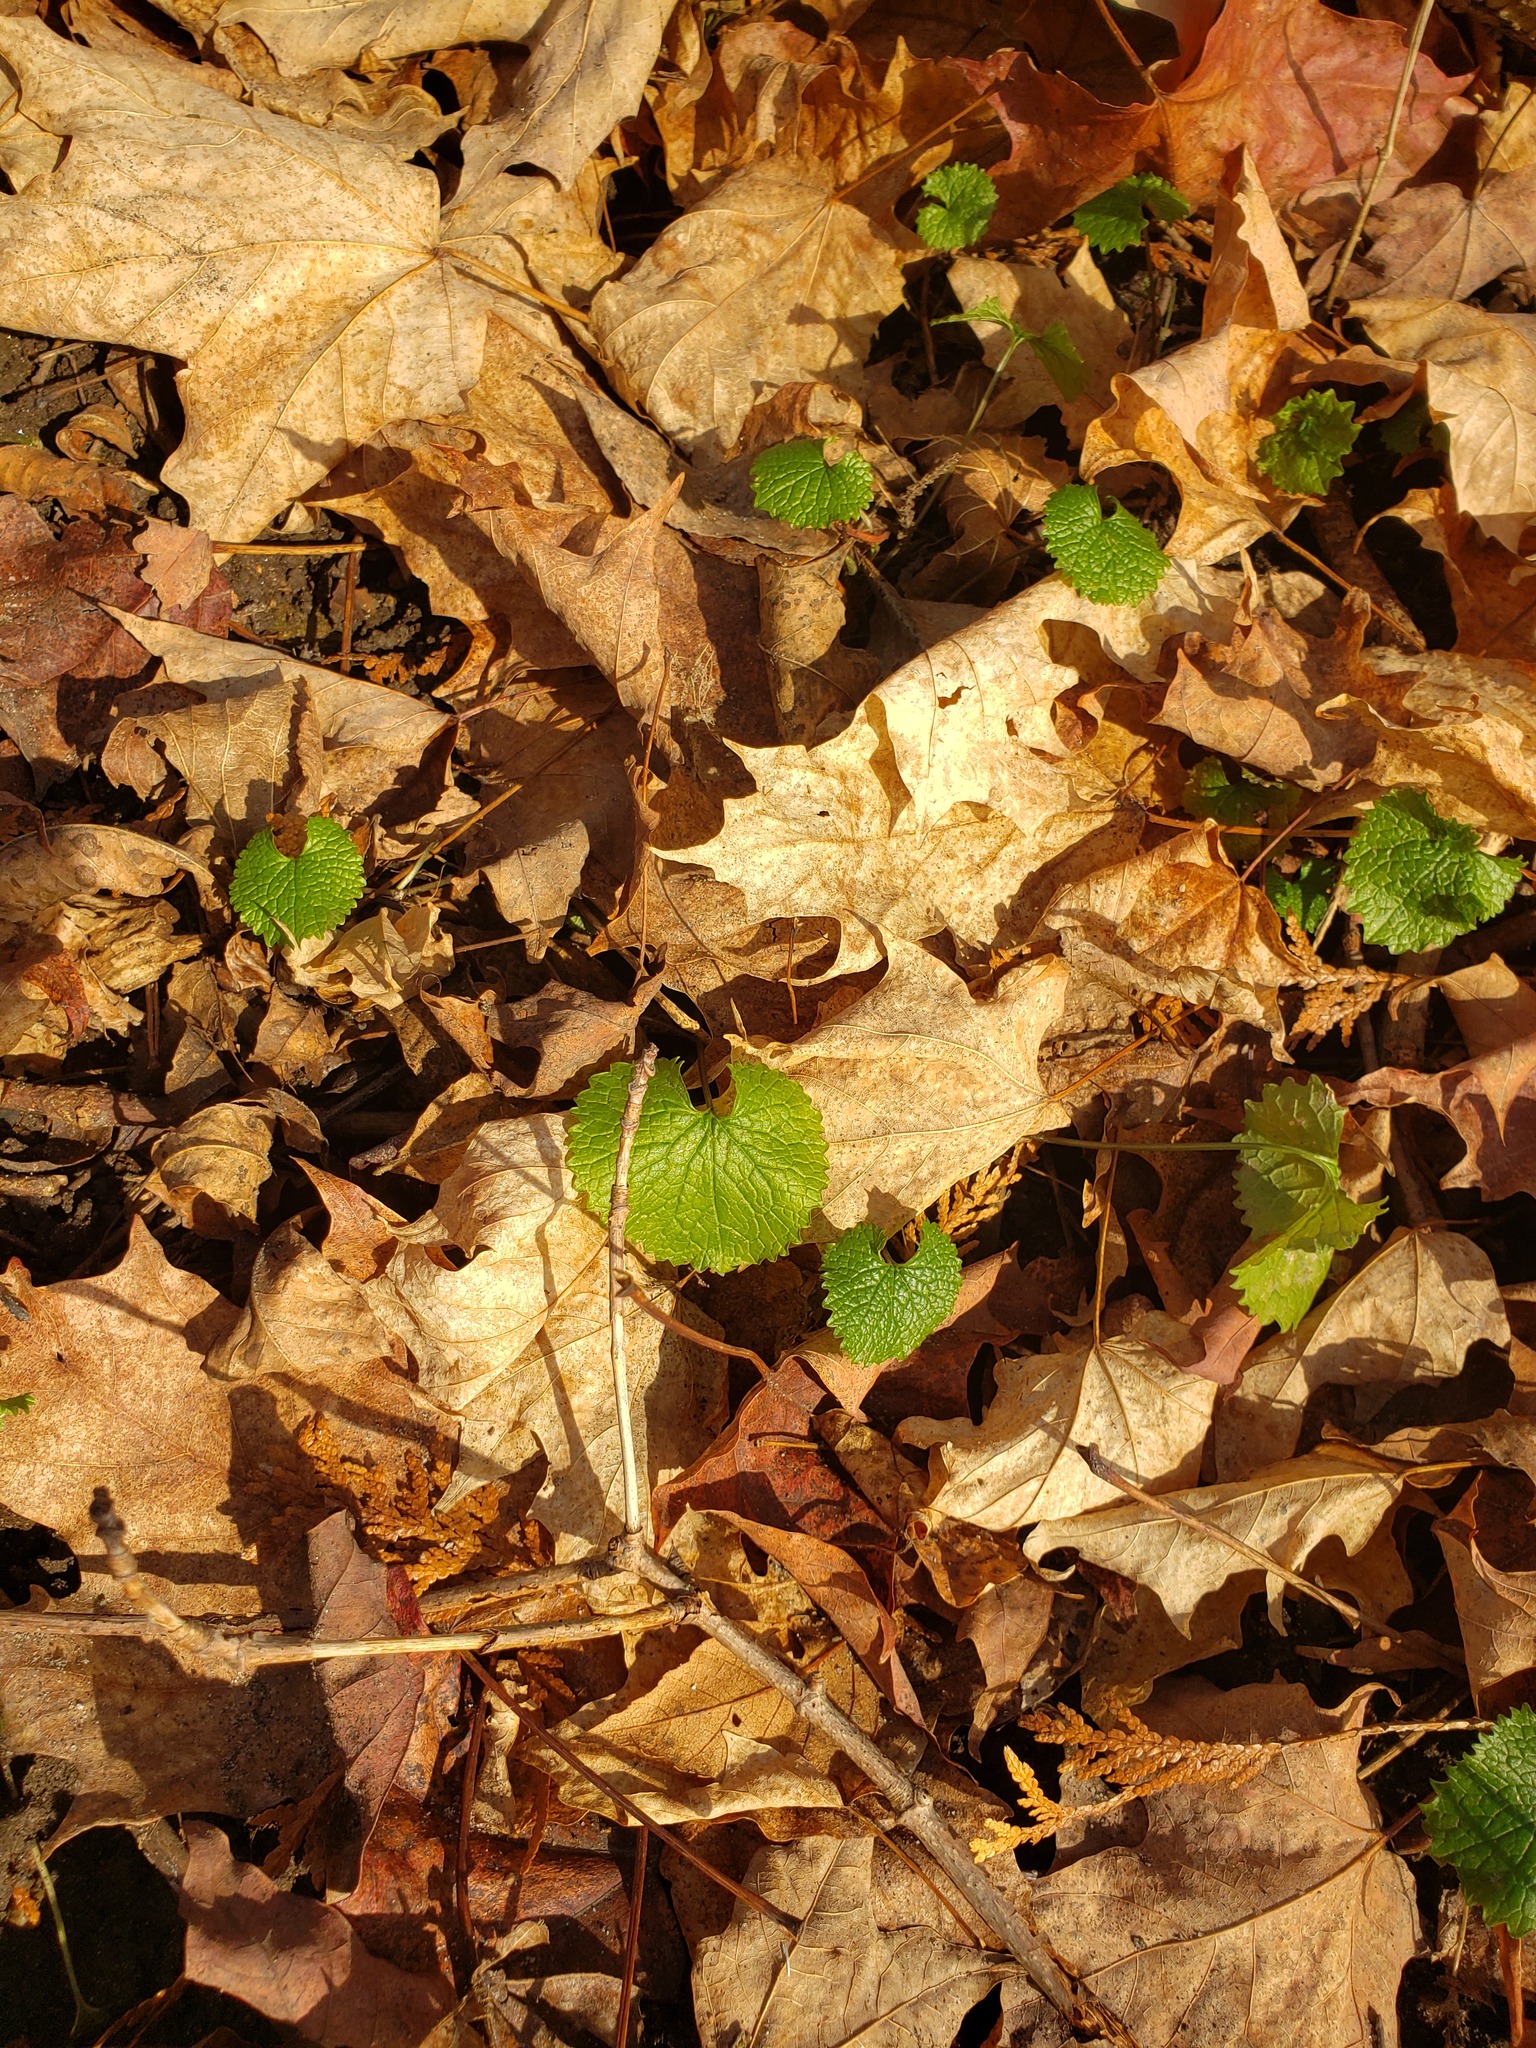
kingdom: Plantae
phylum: Tracheophyta
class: Magnoliopsida
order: Brassicales
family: Brassicaceae
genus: Alliaria
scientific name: Alliaria petiolata
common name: Garlic mustard
